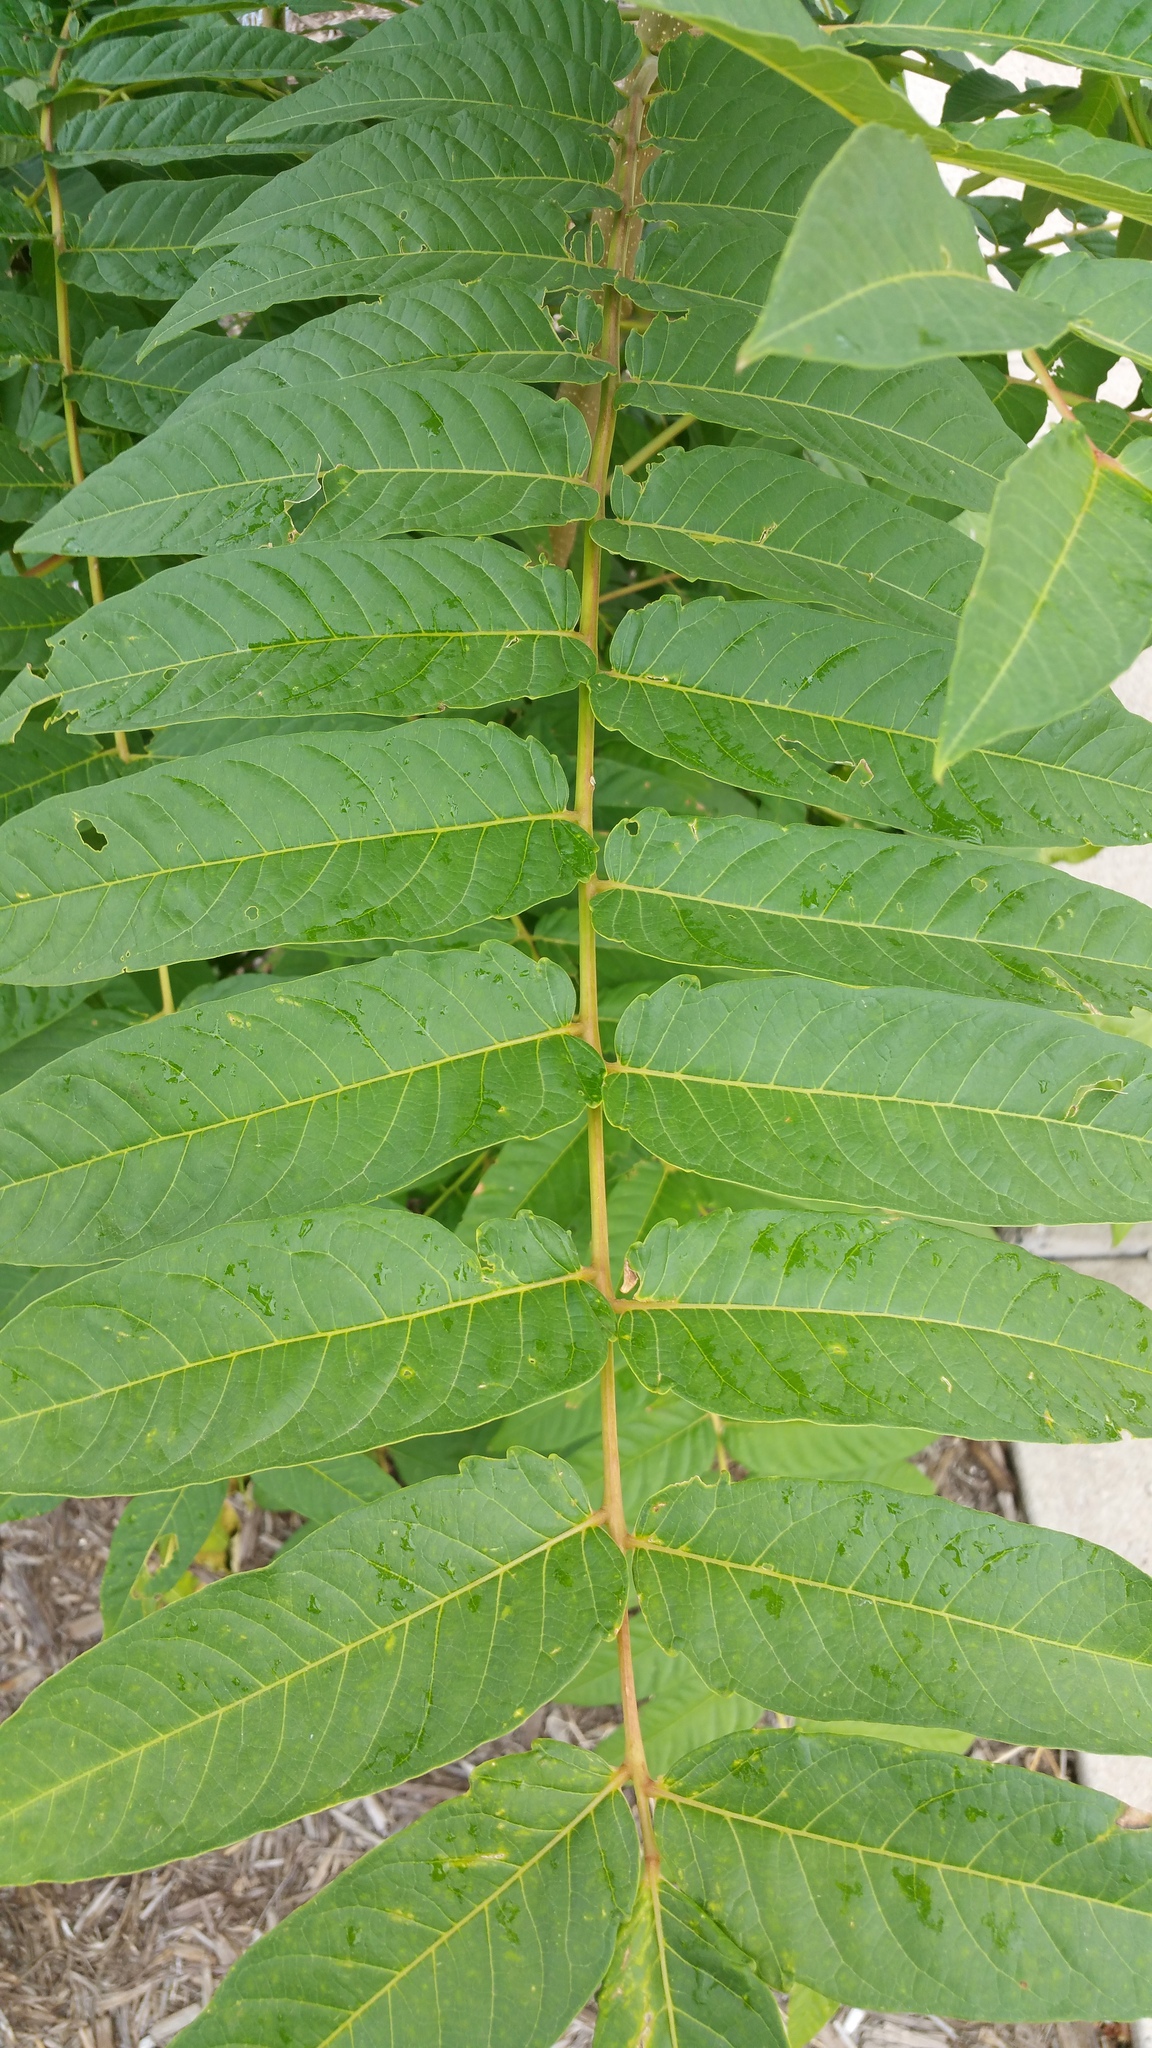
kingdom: Plantae
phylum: Tracheophyta
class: Magnoliopsida
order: Sapindales
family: Simaroubaceae
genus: Ailanthus
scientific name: Ailanthus altissima
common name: Tree-of-heaven
